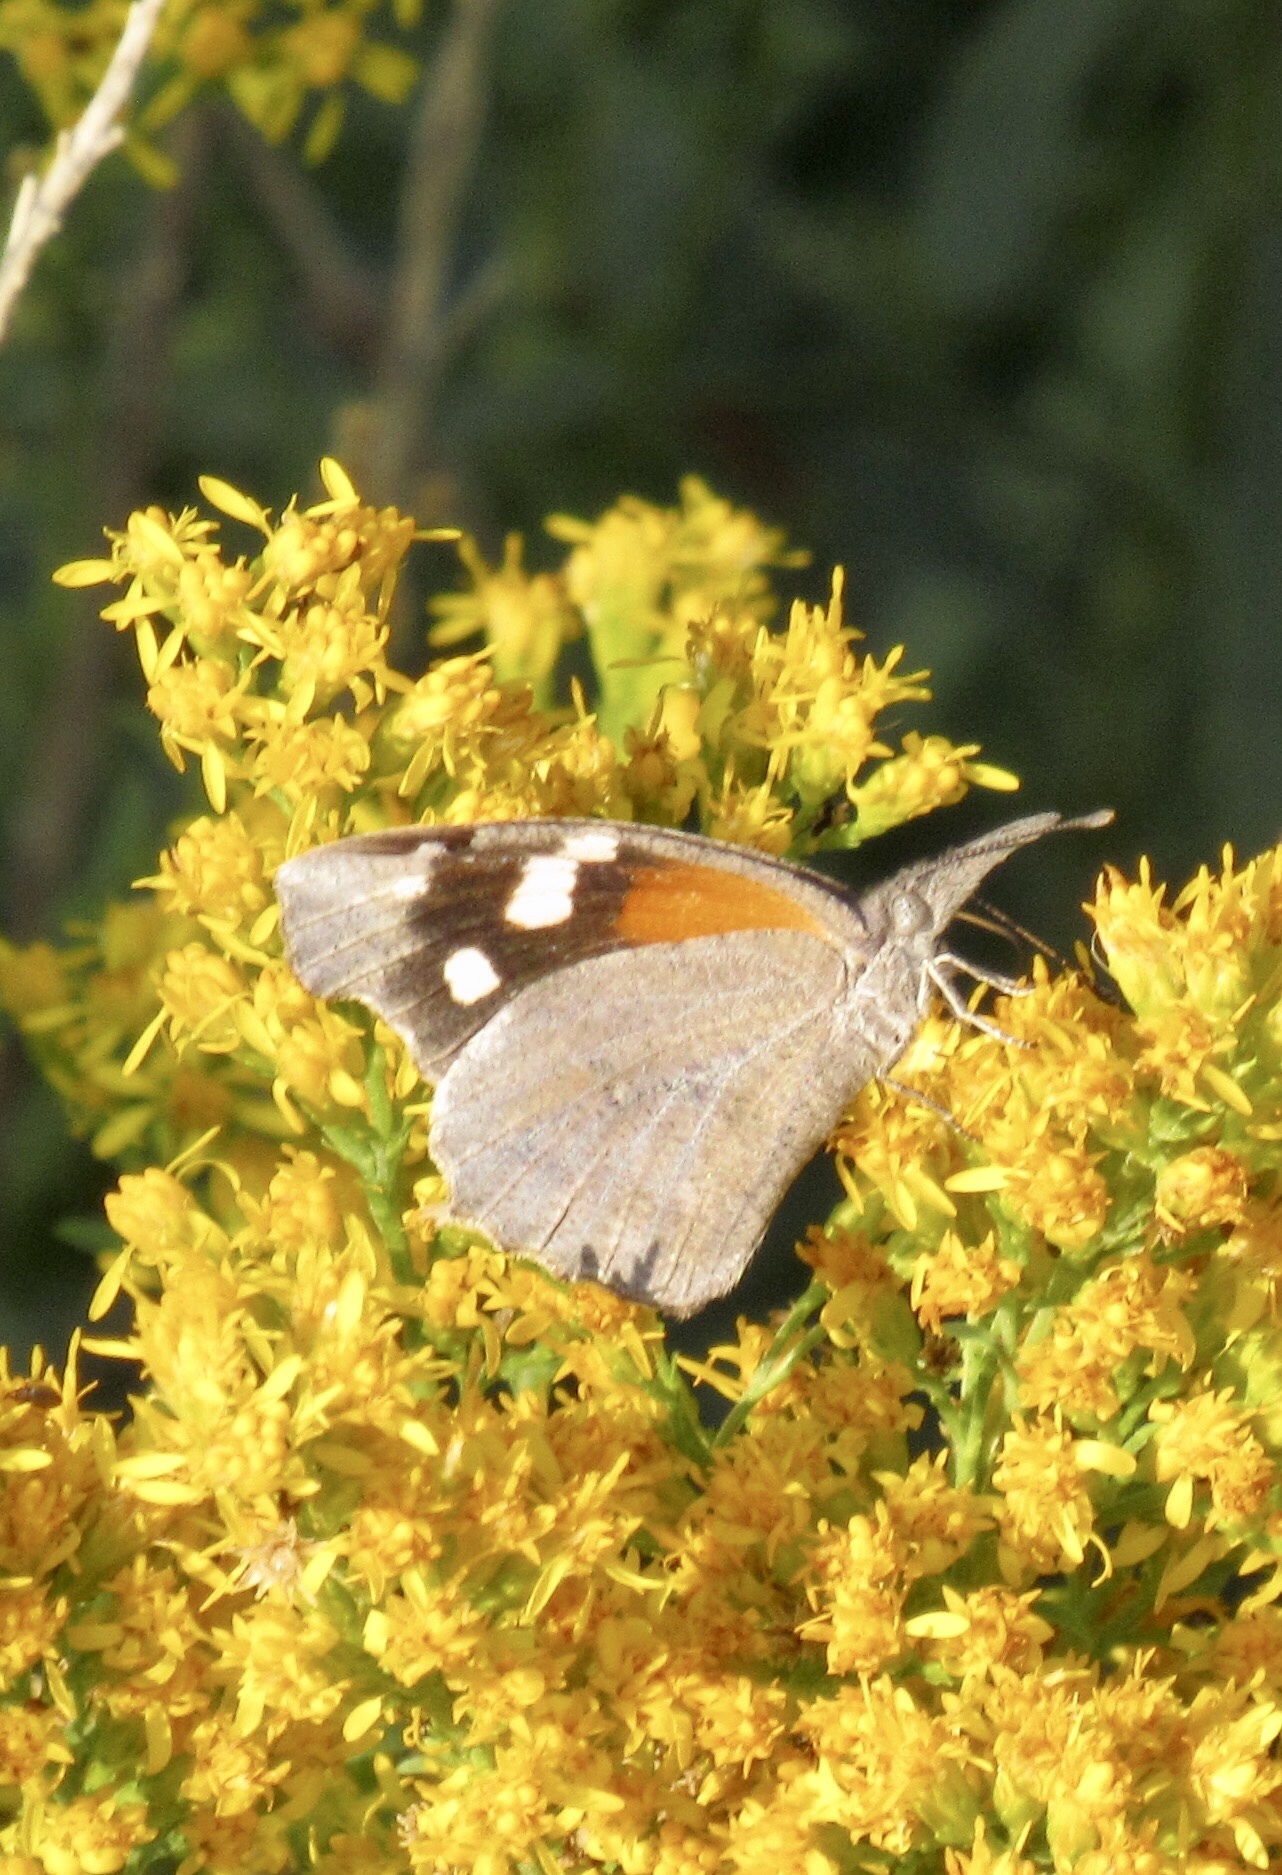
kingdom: Animalia
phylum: Arthropoda
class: Insecta
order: Lepidoptera
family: Nymphalidae
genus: Libytheana
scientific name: Libytheana carinenta
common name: American snout
